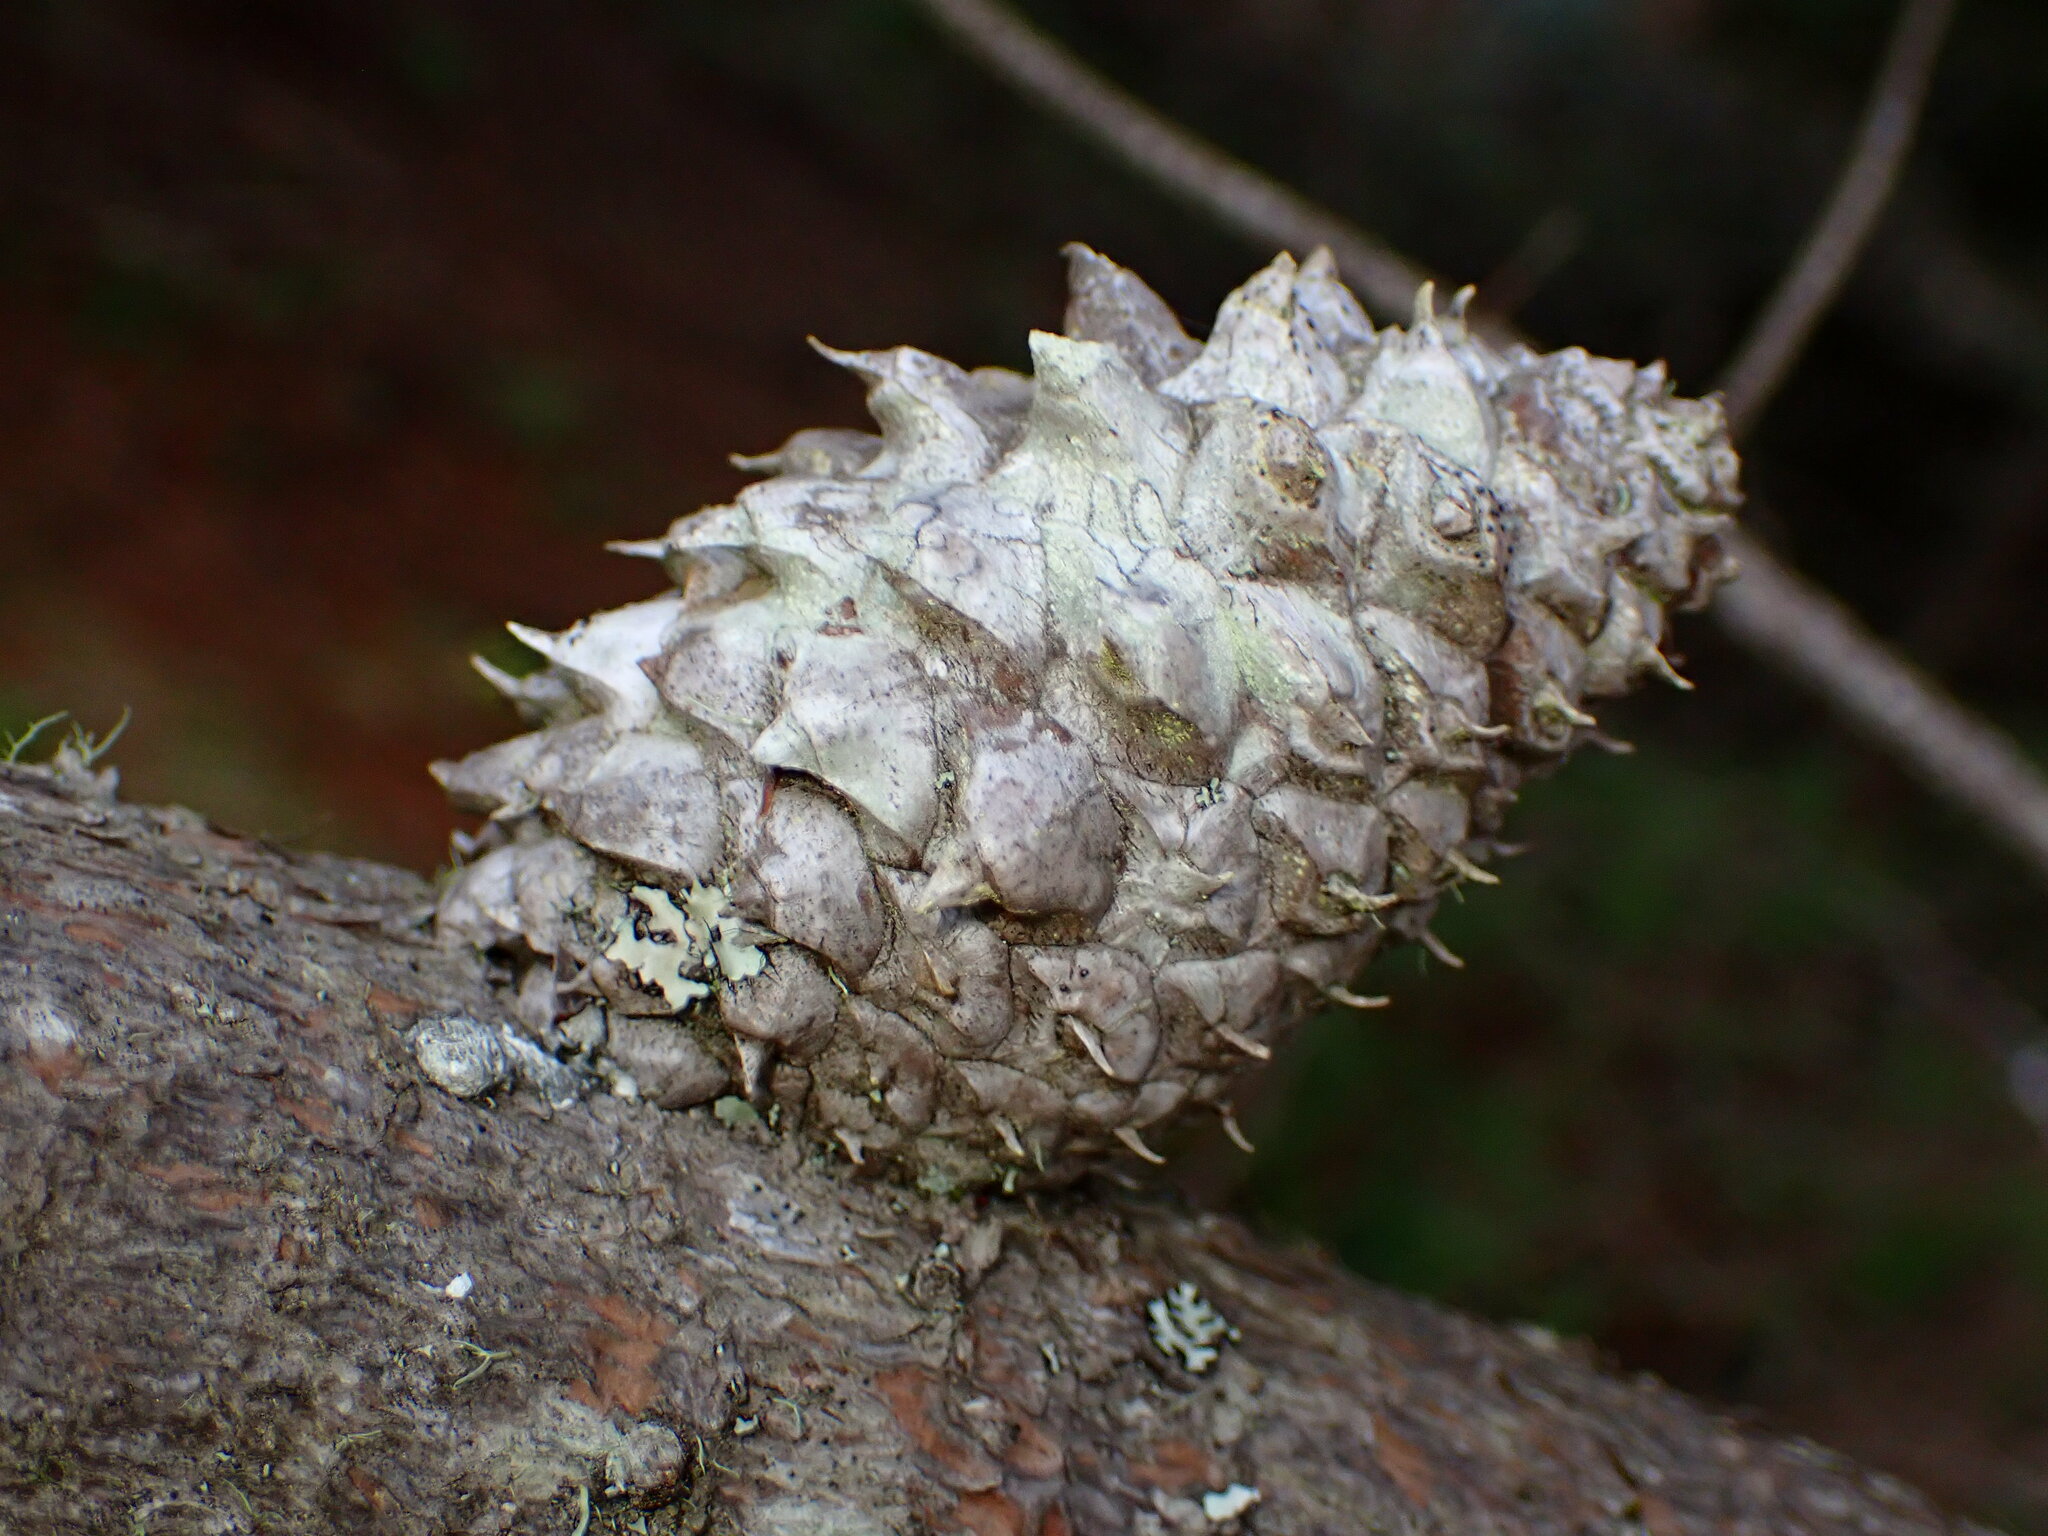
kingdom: Plantae
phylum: Tracheophyta
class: Pinopsida
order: Pinales
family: Pinaceae
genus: Pinus
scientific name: Pinus muricata
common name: Bishop pine
